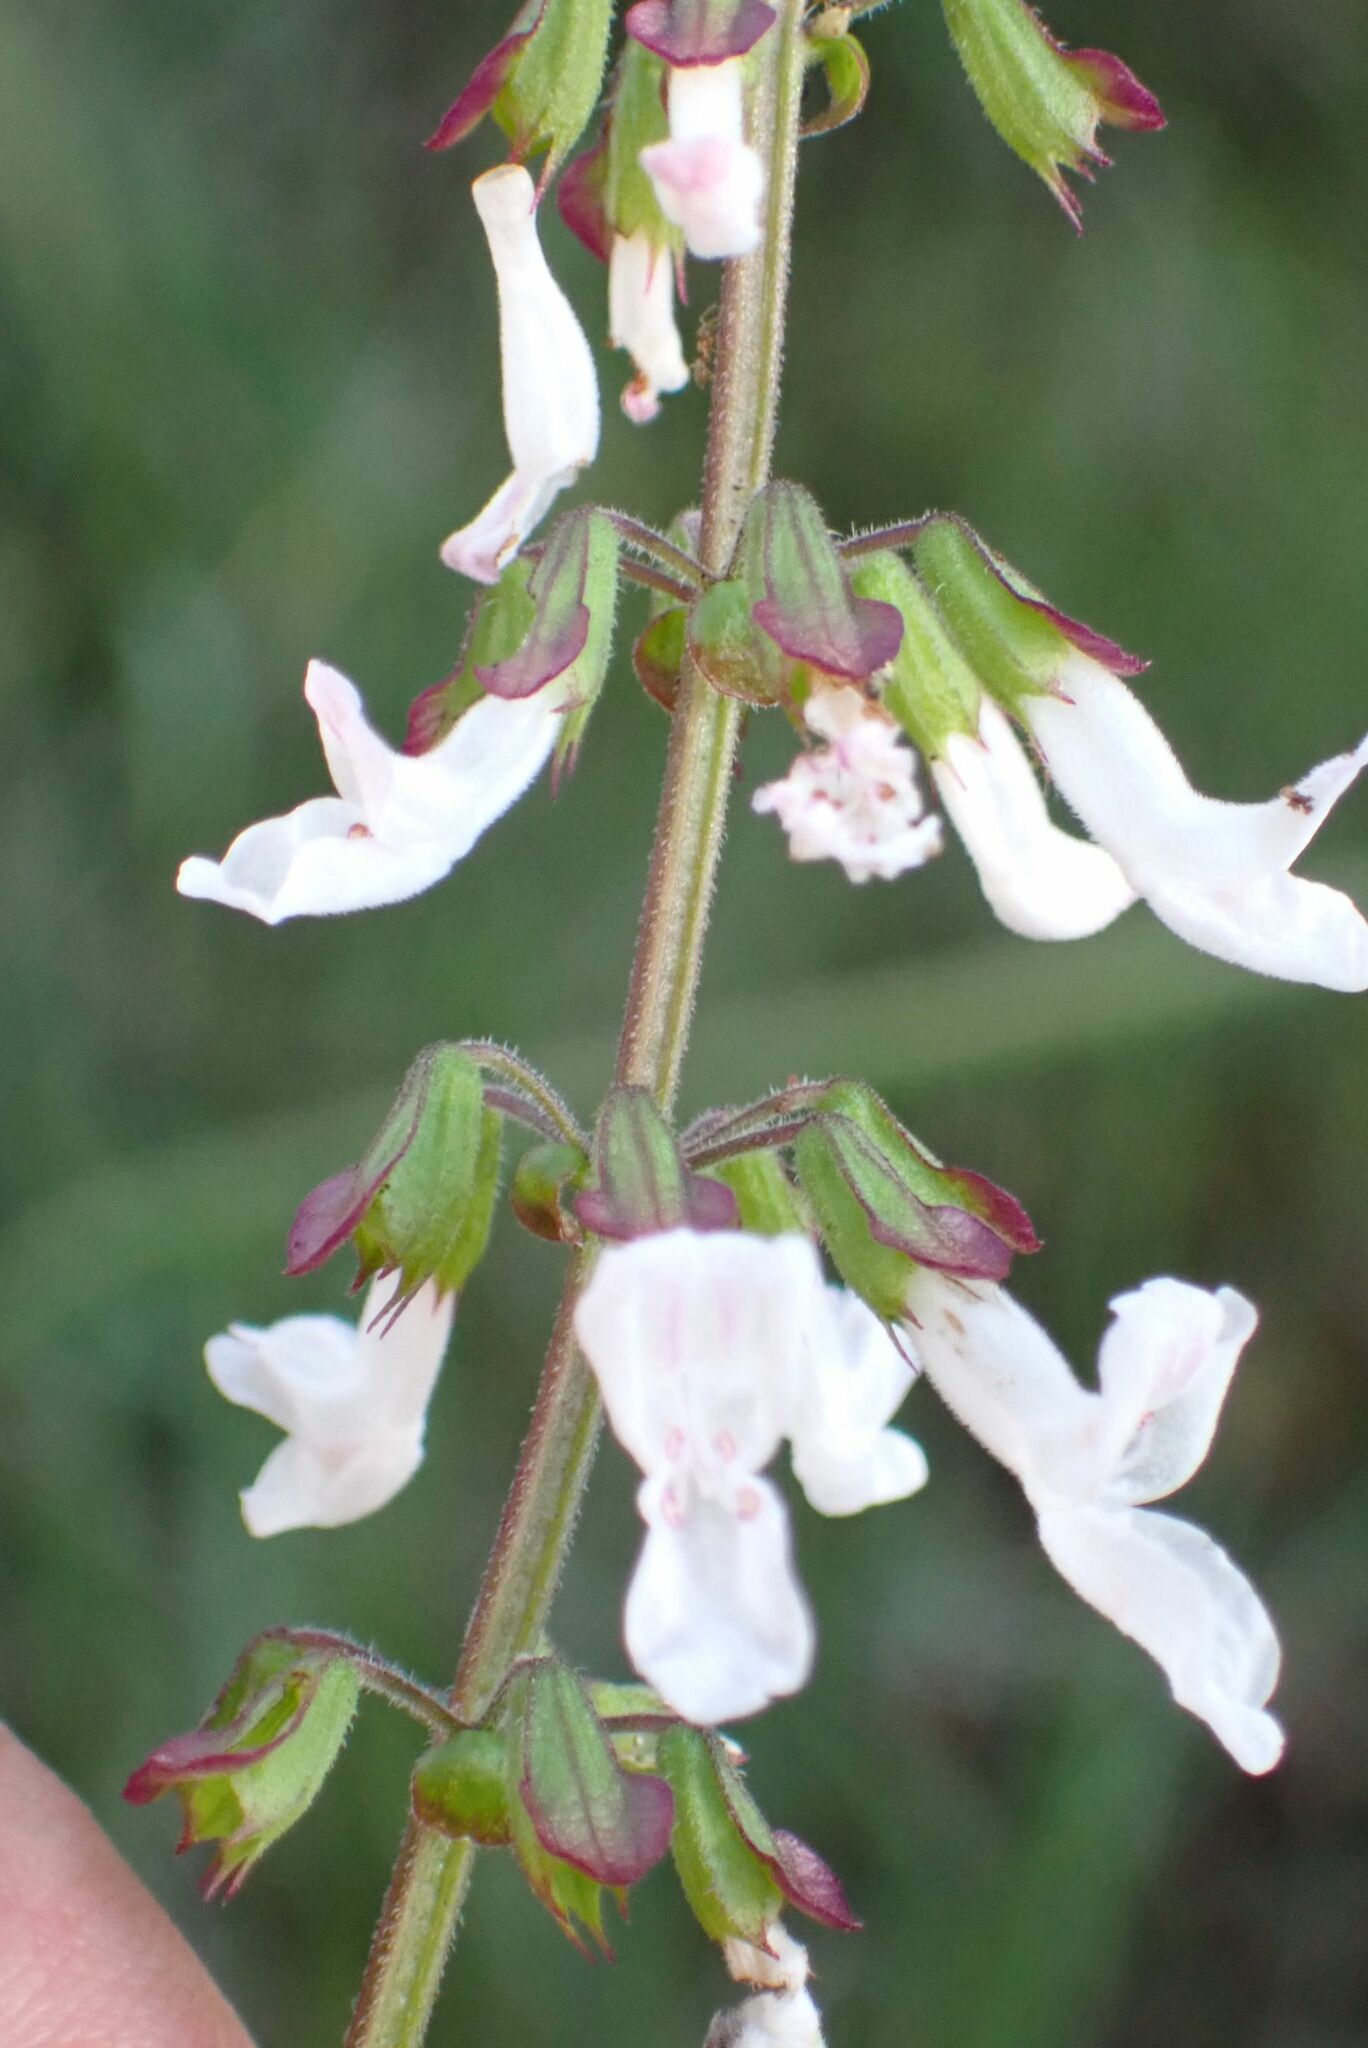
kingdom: Plantae
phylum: Tracheophyta
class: Magnoliopsida
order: Lamiales
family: Lamiaceae
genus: Orthosiphon
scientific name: Orthosiphon thymiflorus
